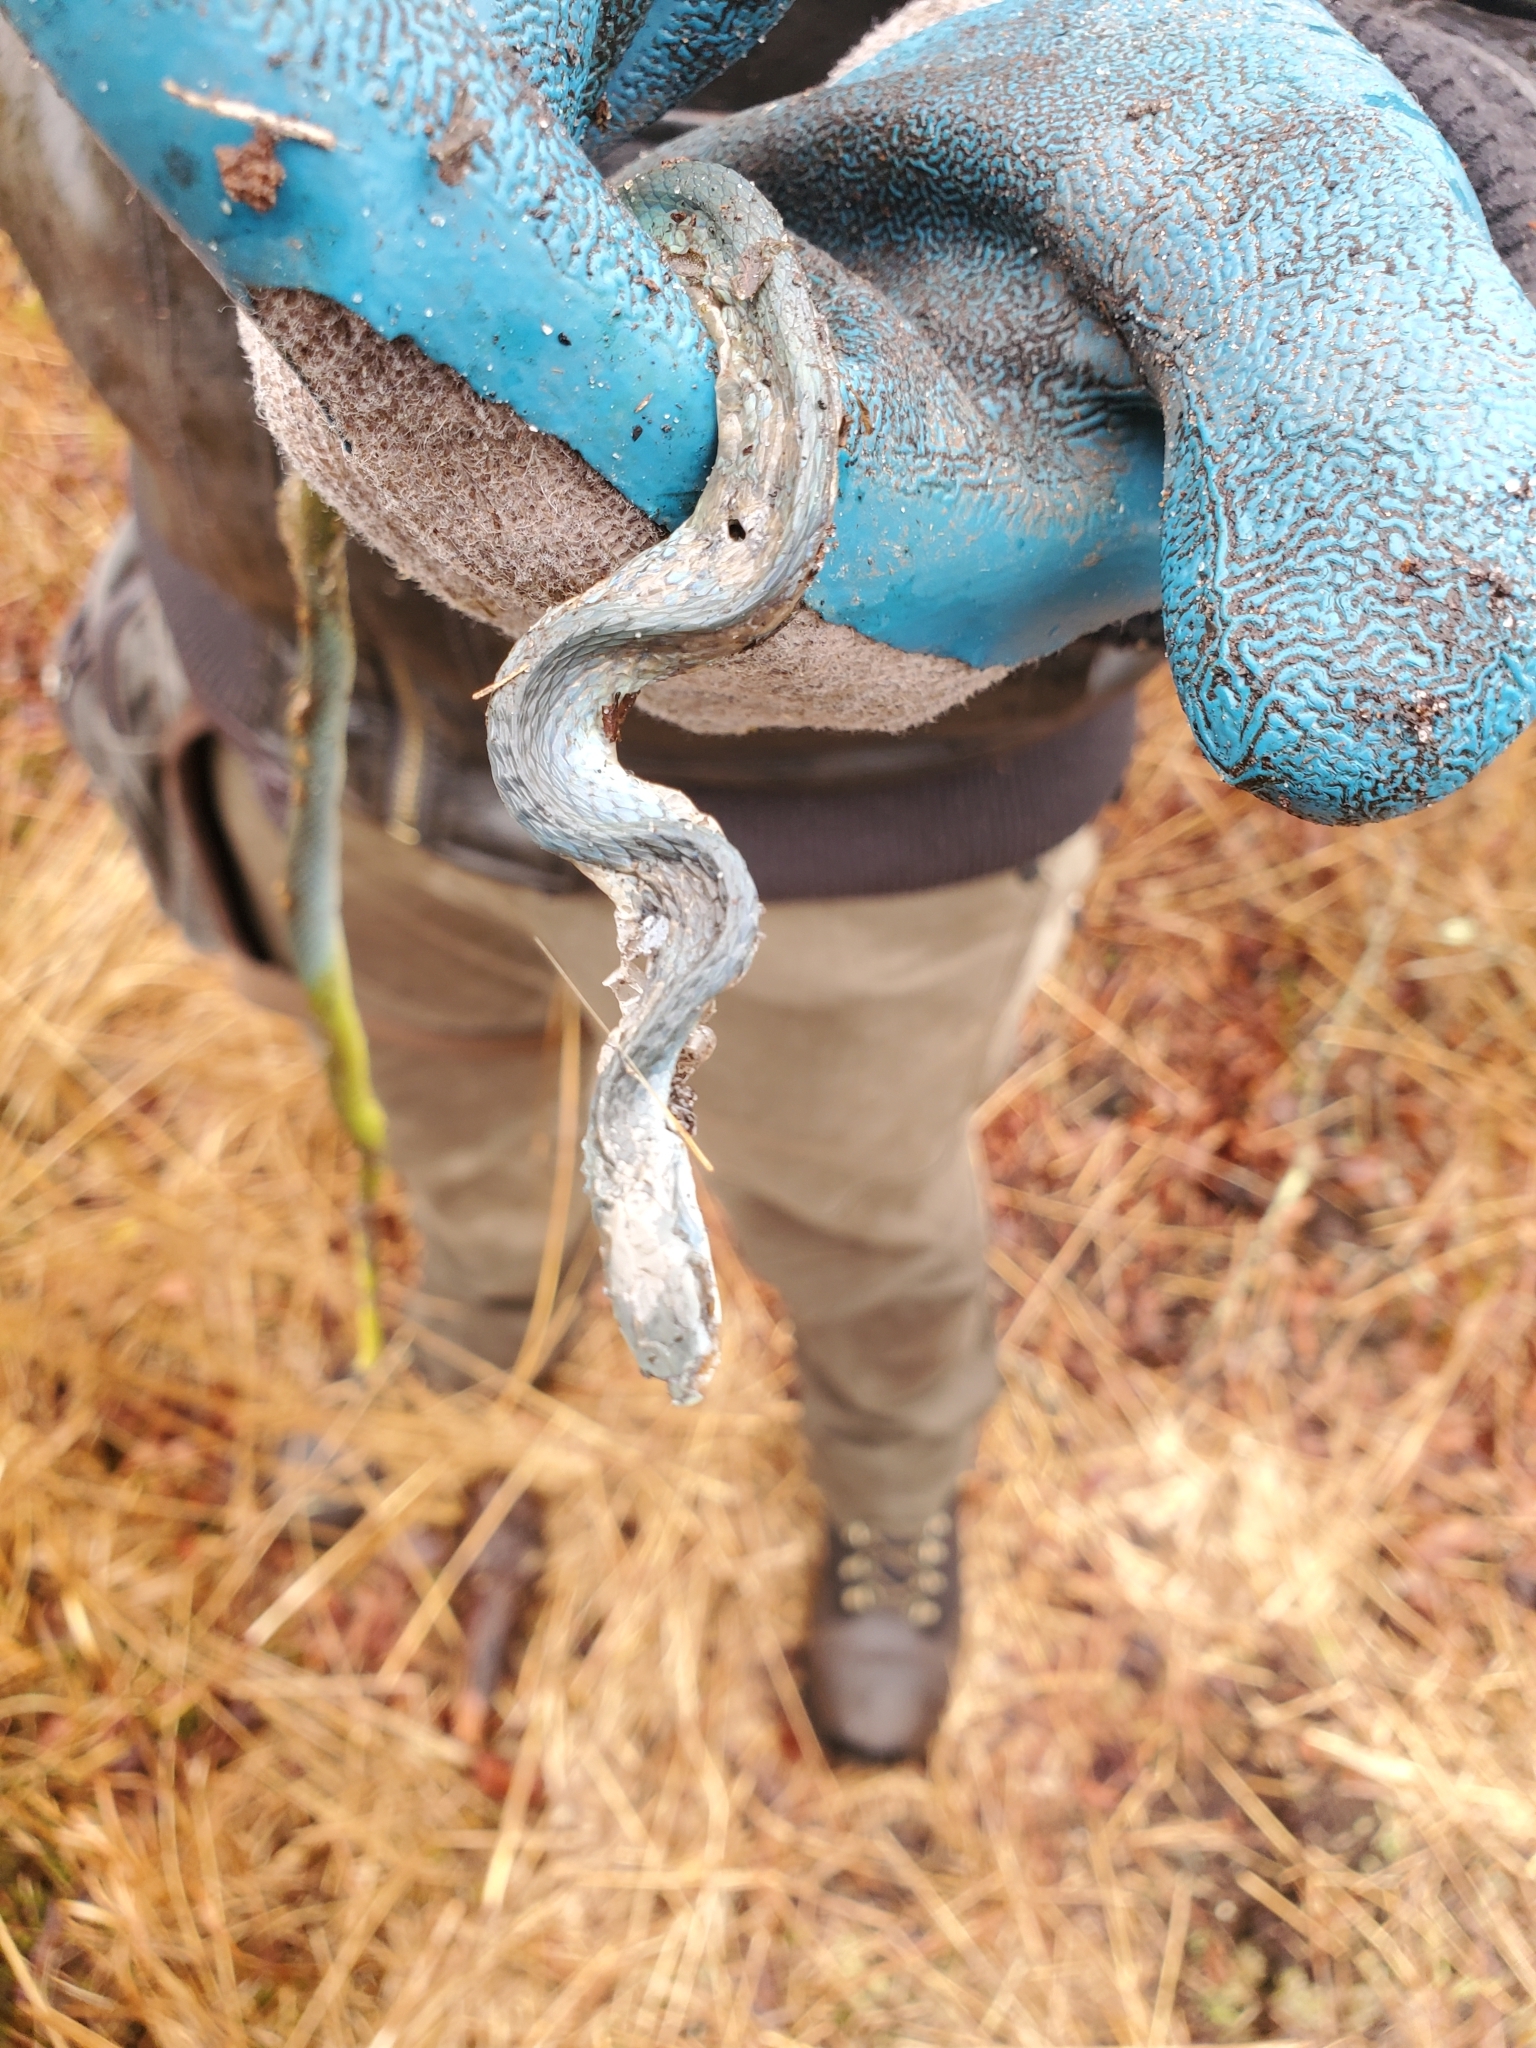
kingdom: Animalia
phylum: Chordata
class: Squamata
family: Colubridae
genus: Opheodrys
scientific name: Opheodrys aestivus
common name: Rough greensnake
